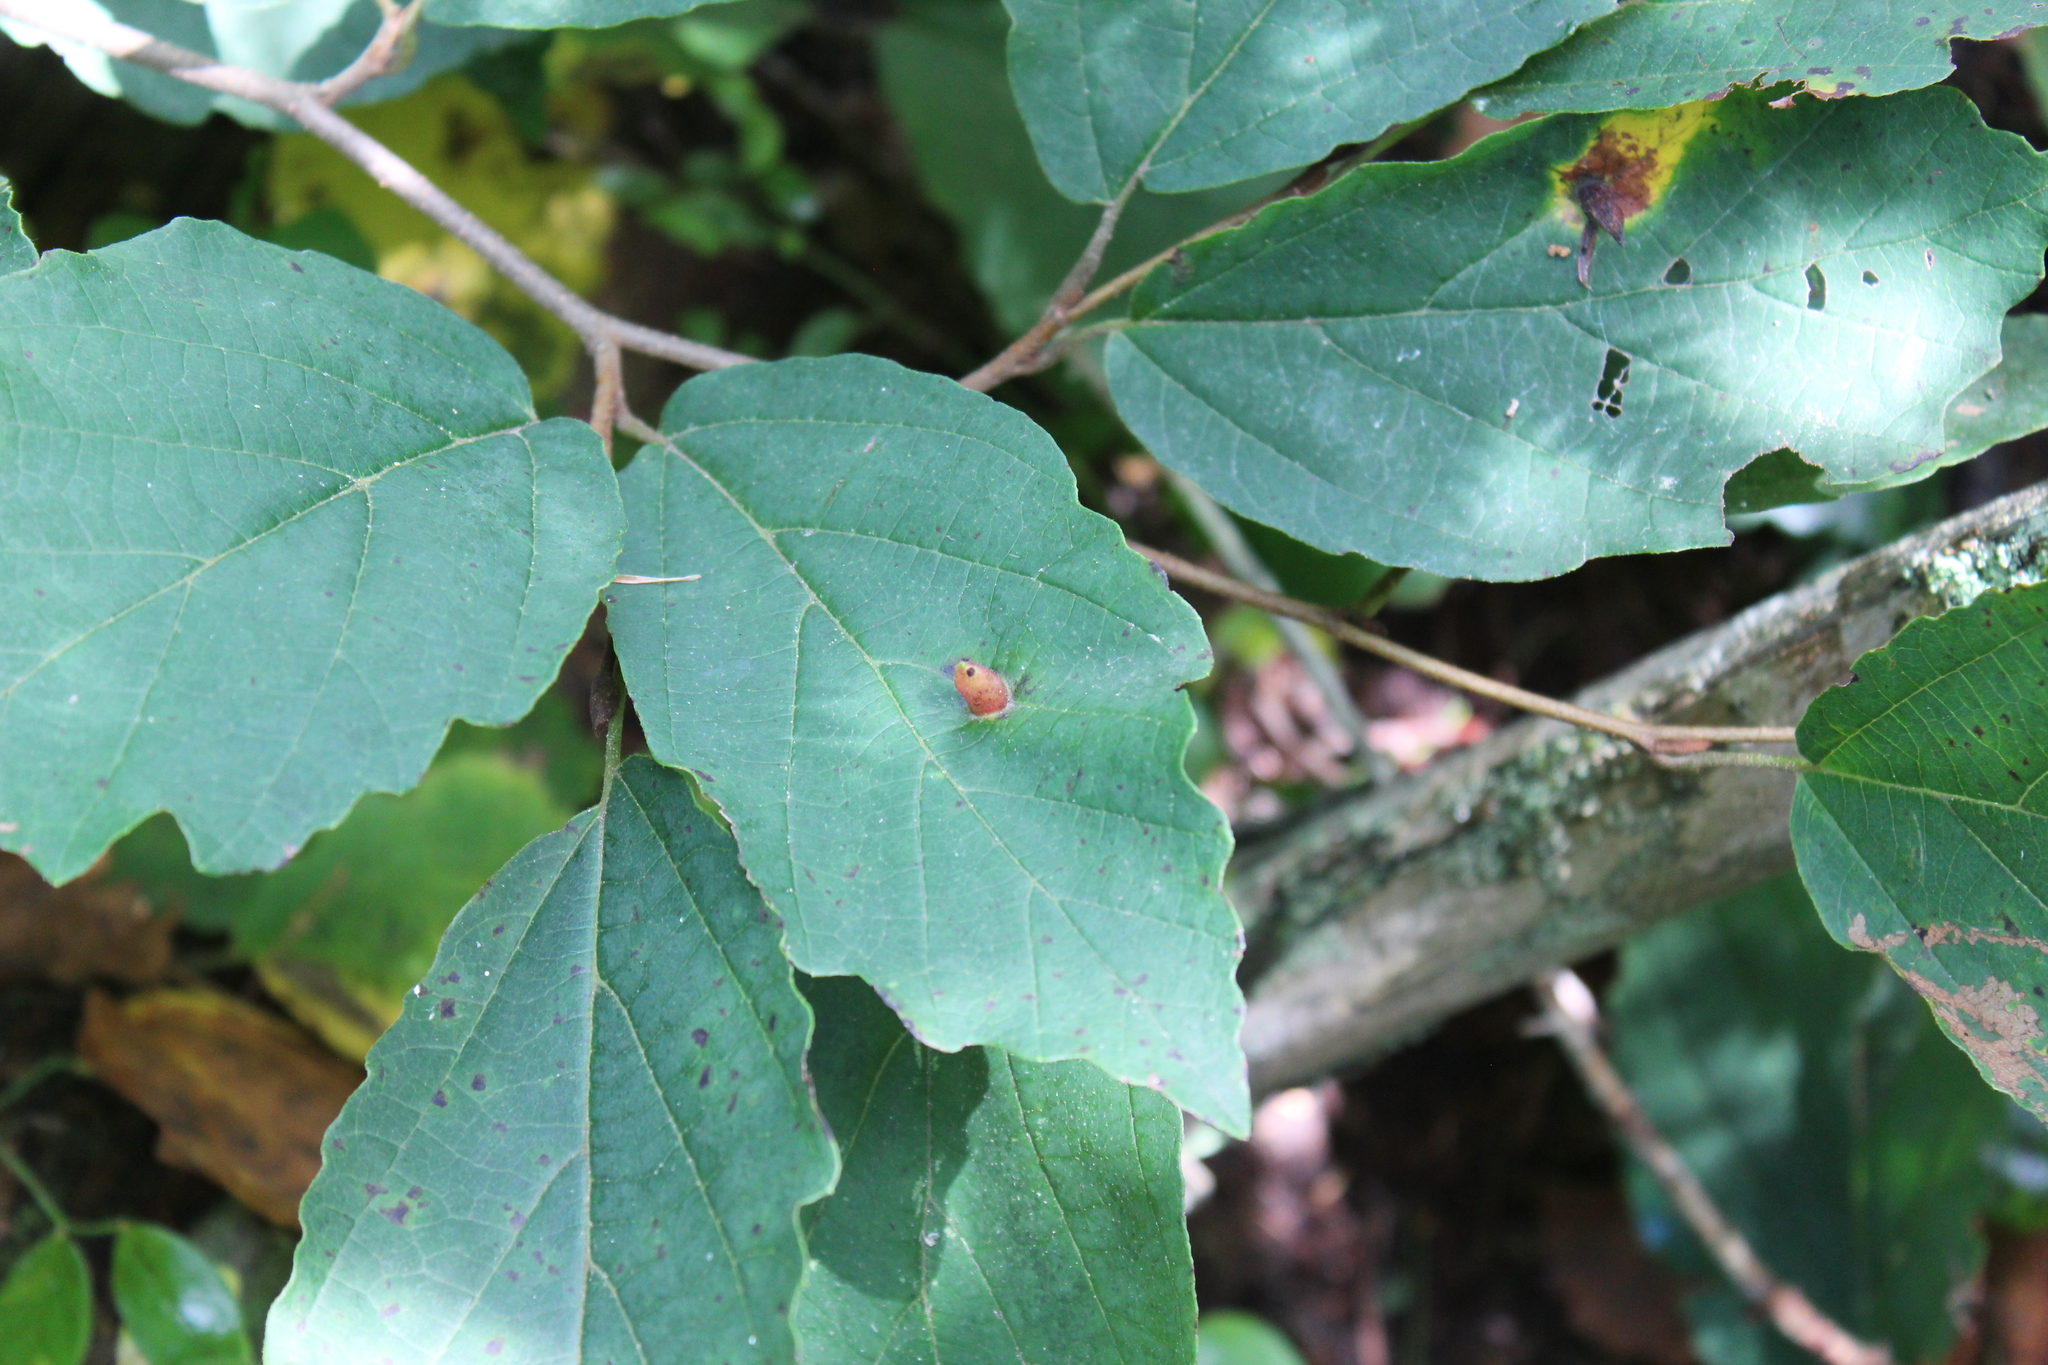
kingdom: Plantae
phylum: Tracheophyta
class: Magnoliopsida
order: Saxifragales
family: Hamamelidaceae
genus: Hamamelis
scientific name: Hamamelis virginiana
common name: Witch-hazel
